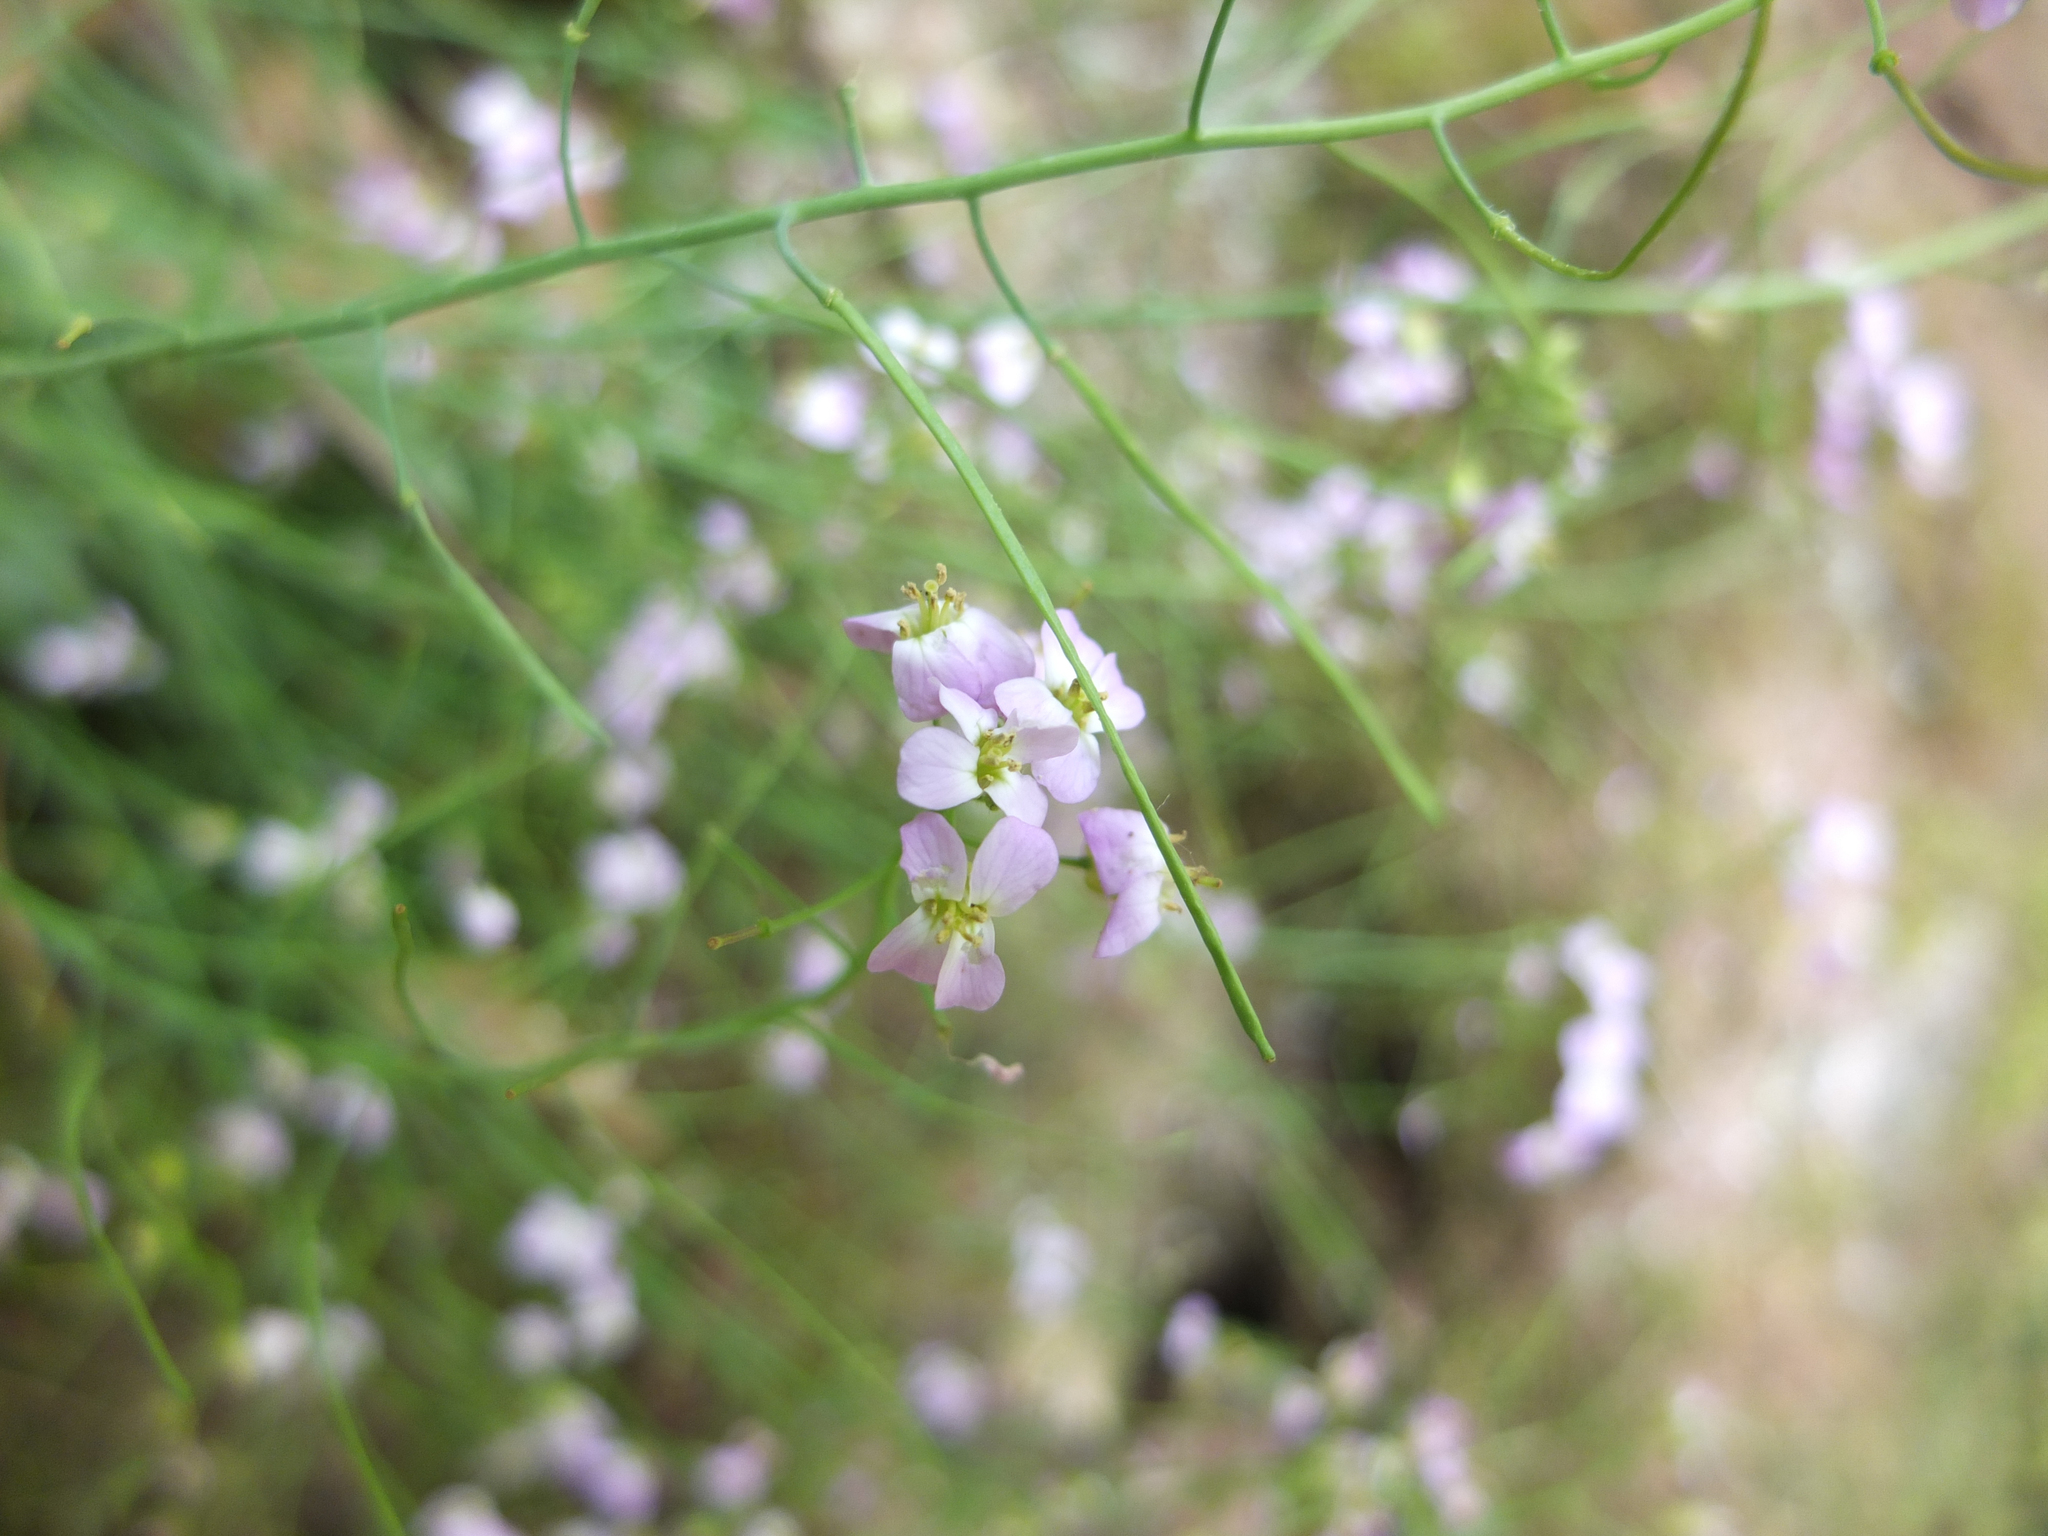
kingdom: Plantae
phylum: Tracheophyta
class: Magnoliopsida
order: Brassicales
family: Brassicaceae
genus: Arabidopsis
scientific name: Arabidopsis arenosa
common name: Sand rock-cress
